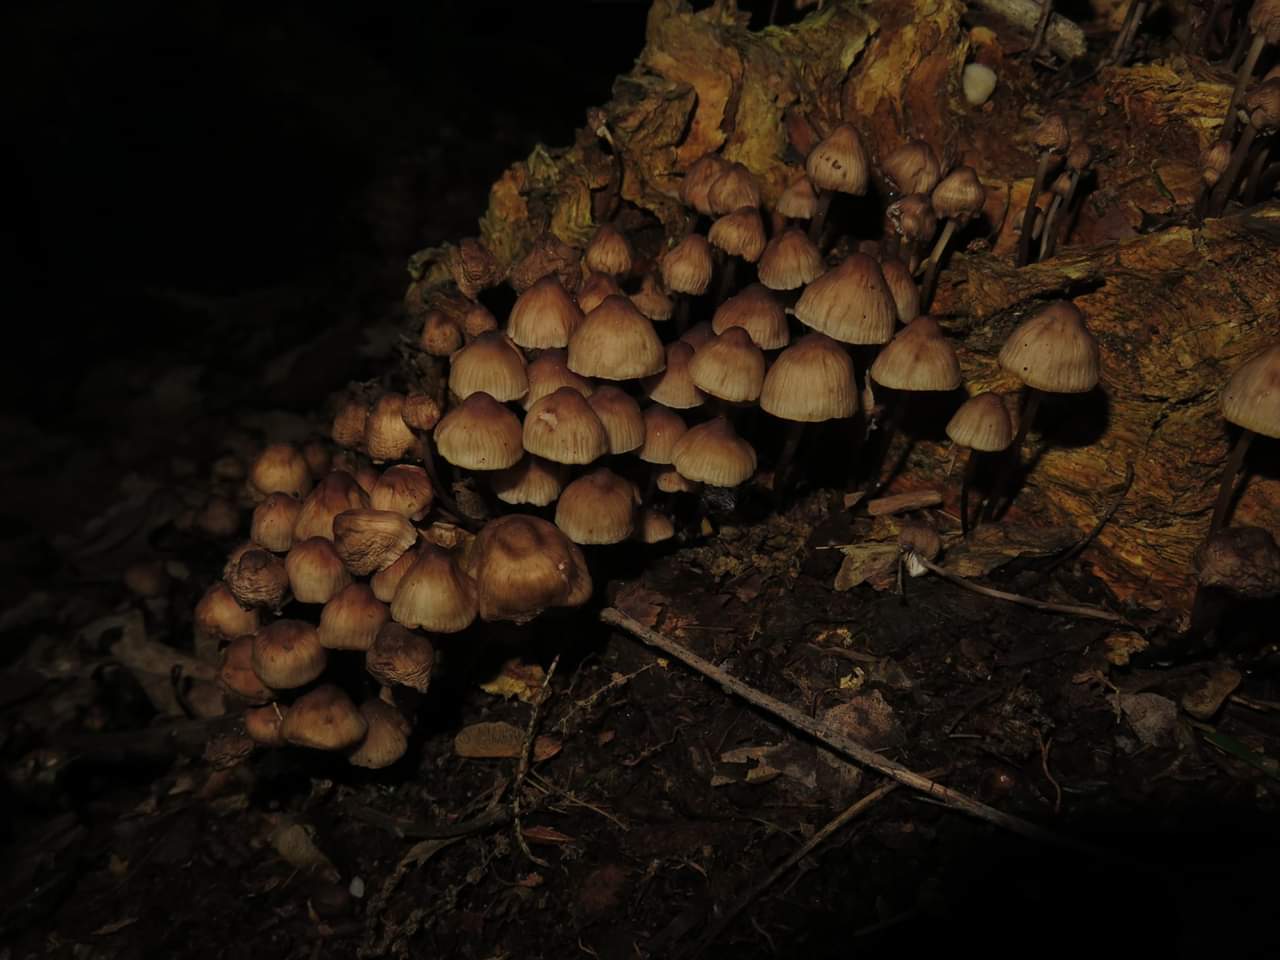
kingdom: Fungi
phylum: Basidiomycota
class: Agaricomycetes
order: Agaricales
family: Mycenaceae
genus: Mycena
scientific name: Mycena galericulata
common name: Bonnet mycena
